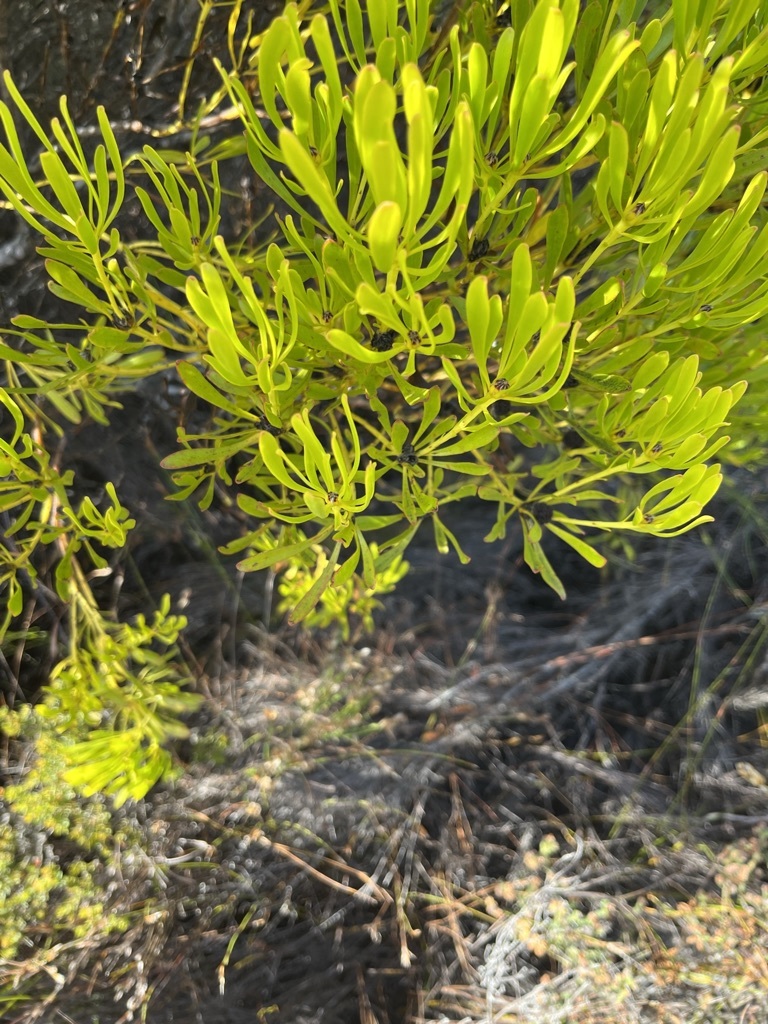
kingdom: Plantae
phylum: Tracheophyta
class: Magnoliopsida
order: Proteales
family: Proteaceae
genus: Leucadendron
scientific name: Leucadendron platyspermum
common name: Plate-seed conebush
